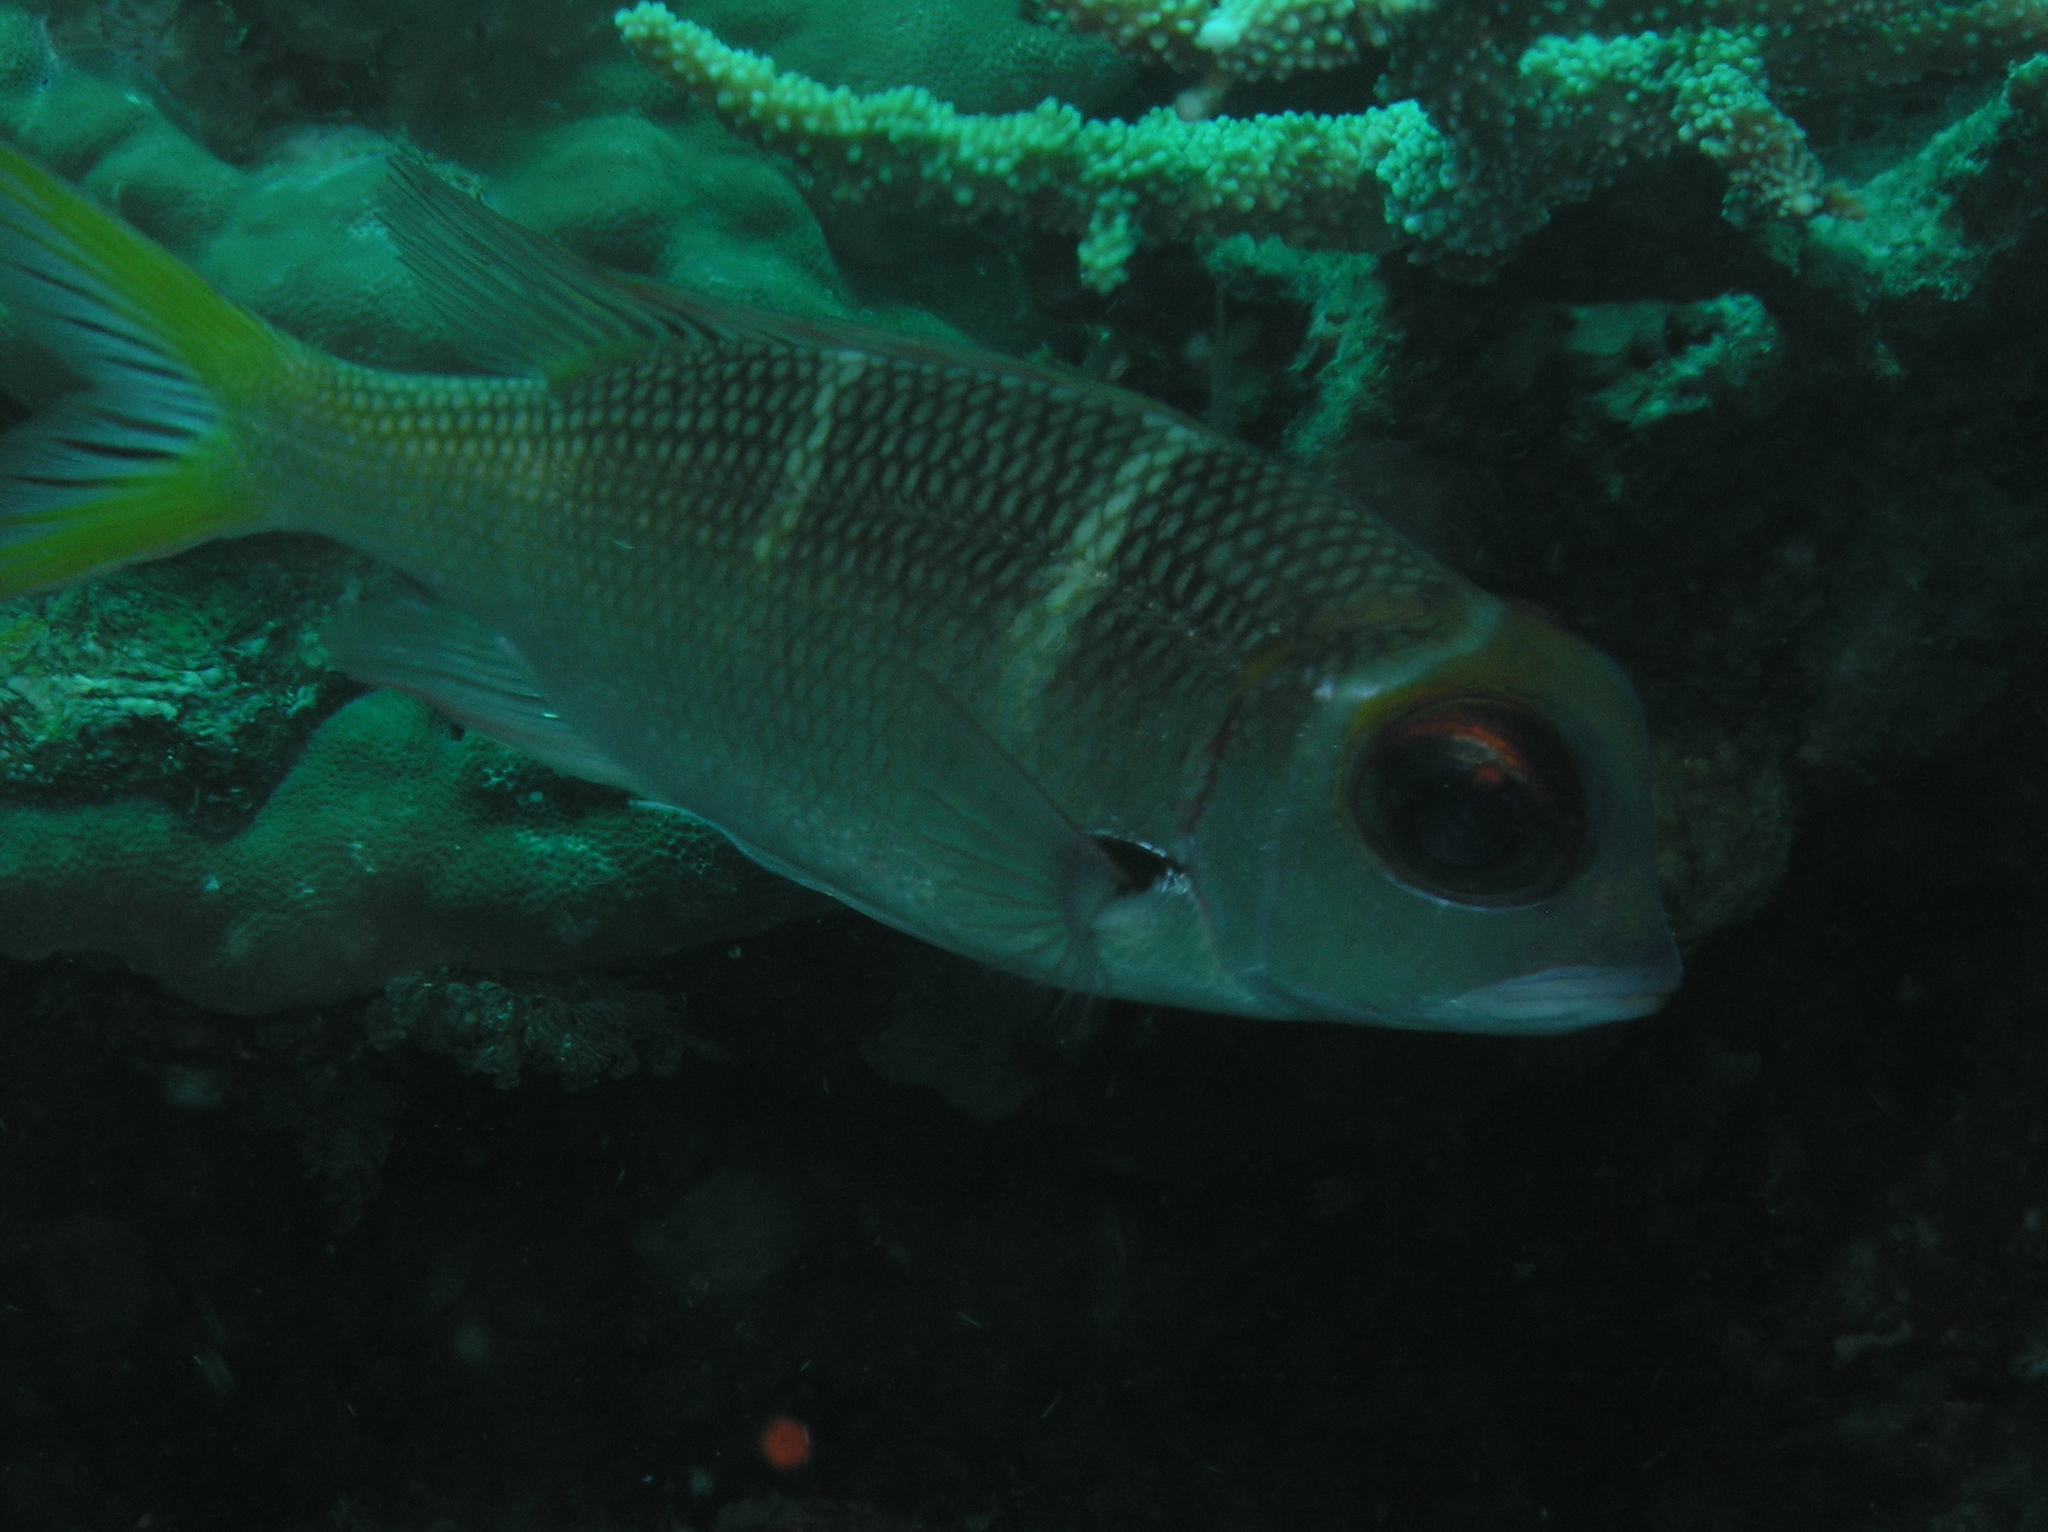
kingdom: Animalia
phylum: Chordata
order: Perciformes
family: Lethrinidae
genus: Monotaxis
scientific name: Monotaxis heterodon
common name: Redfin emperor
